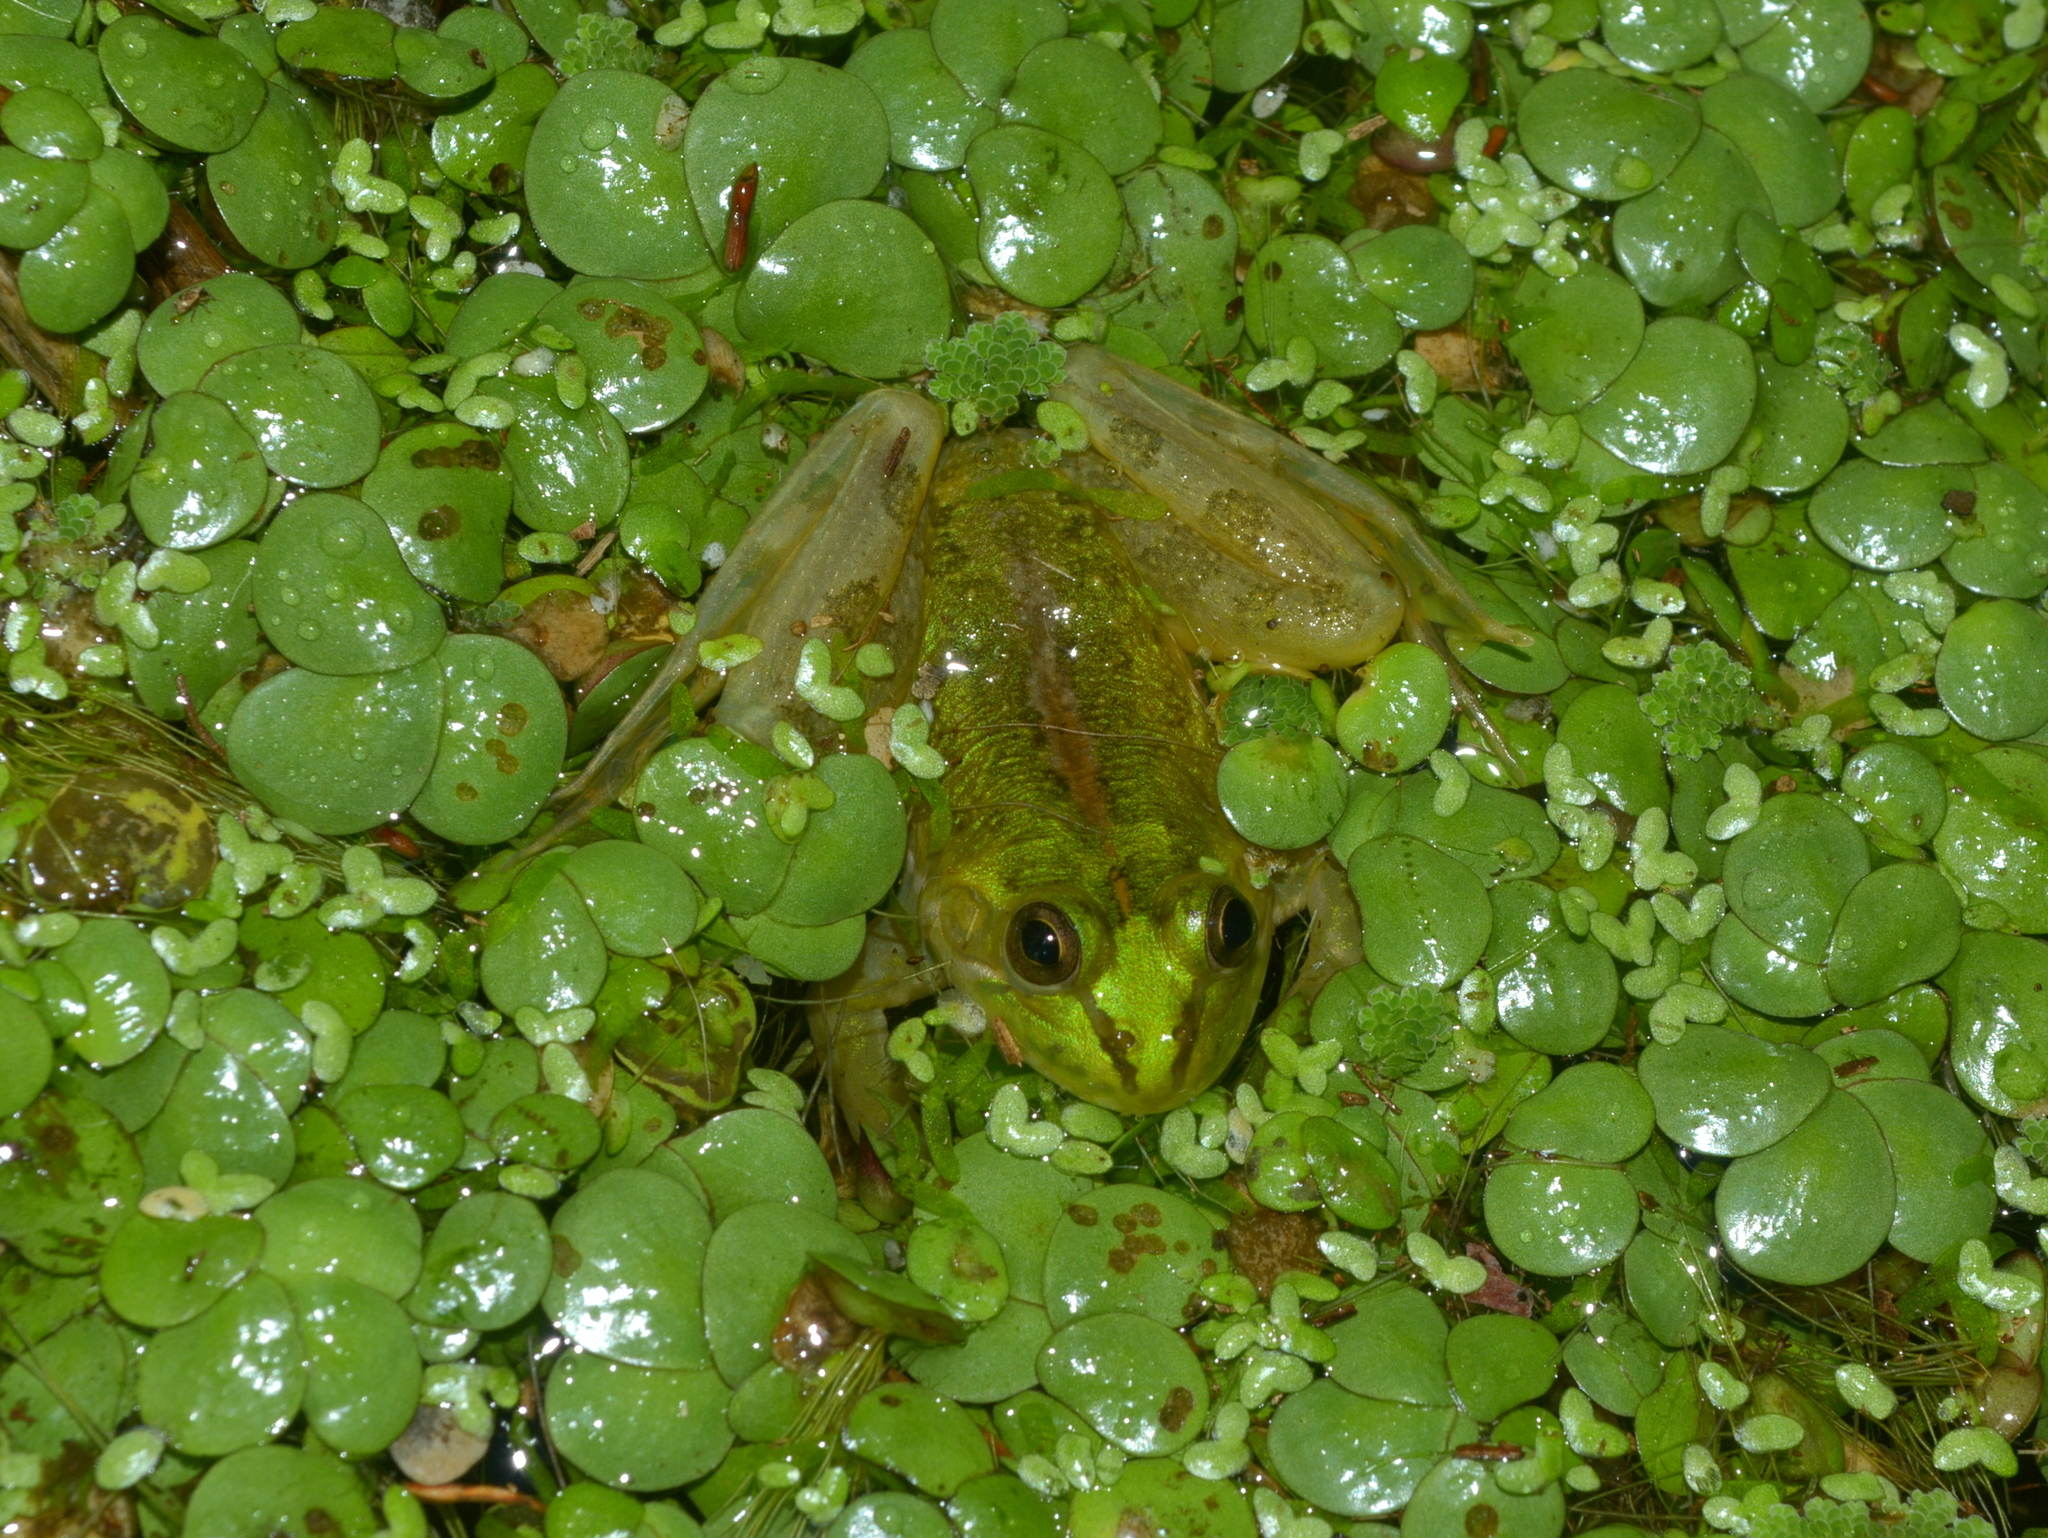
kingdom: Animalia
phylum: Chordata
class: Amphibia
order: Anura
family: Hylidae
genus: Pseudis
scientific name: Pseudis minuta
